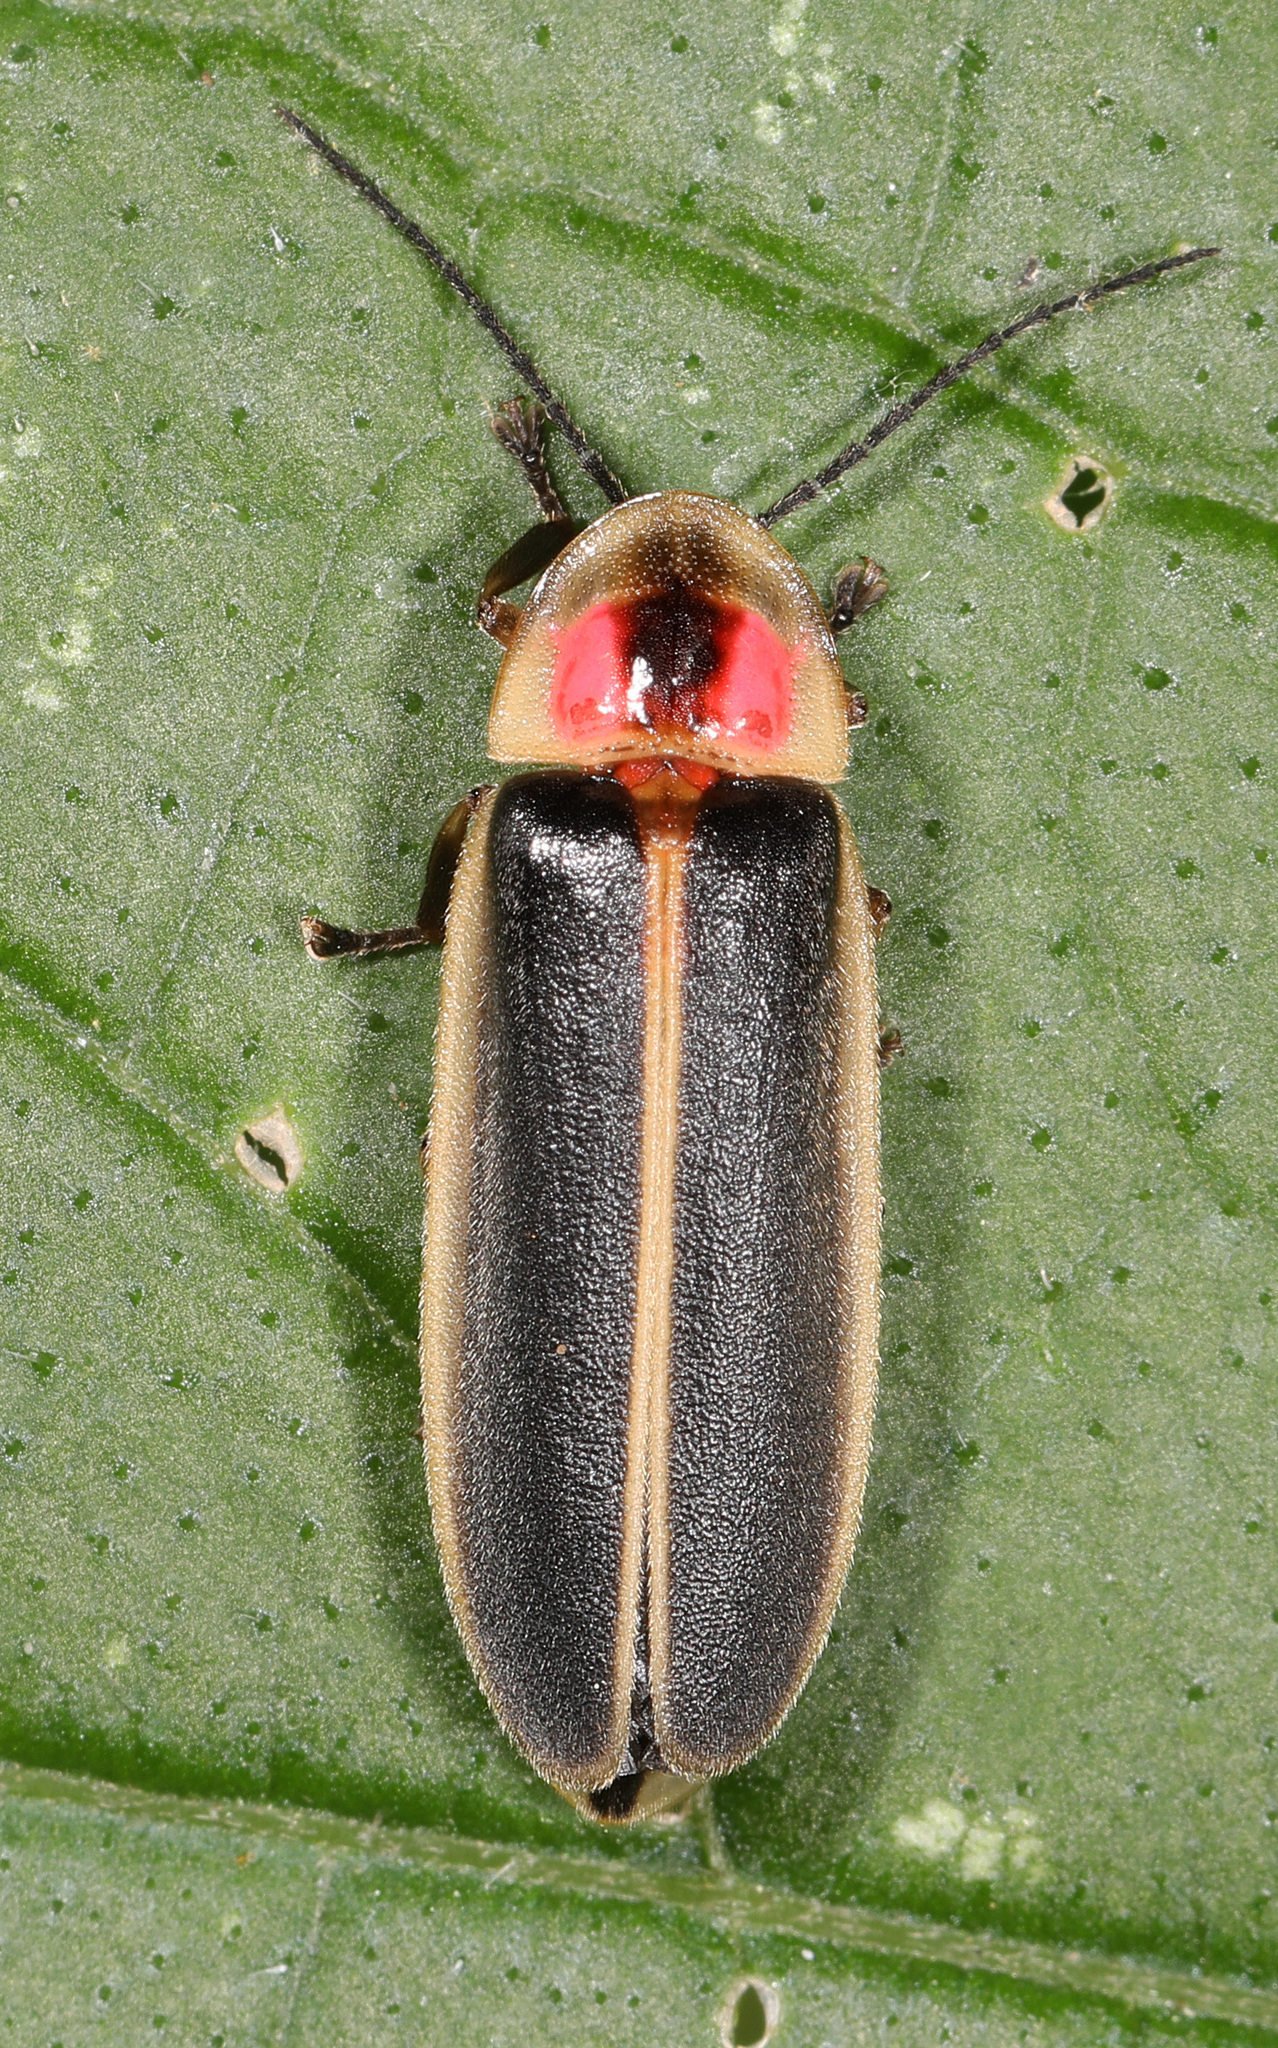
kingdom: Animalia
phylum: Arthropoda
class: Insecta
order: Coleoptera
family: Lampyridae
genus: Photinus
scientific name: Photinus pyralis
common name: Big dipper firefly
